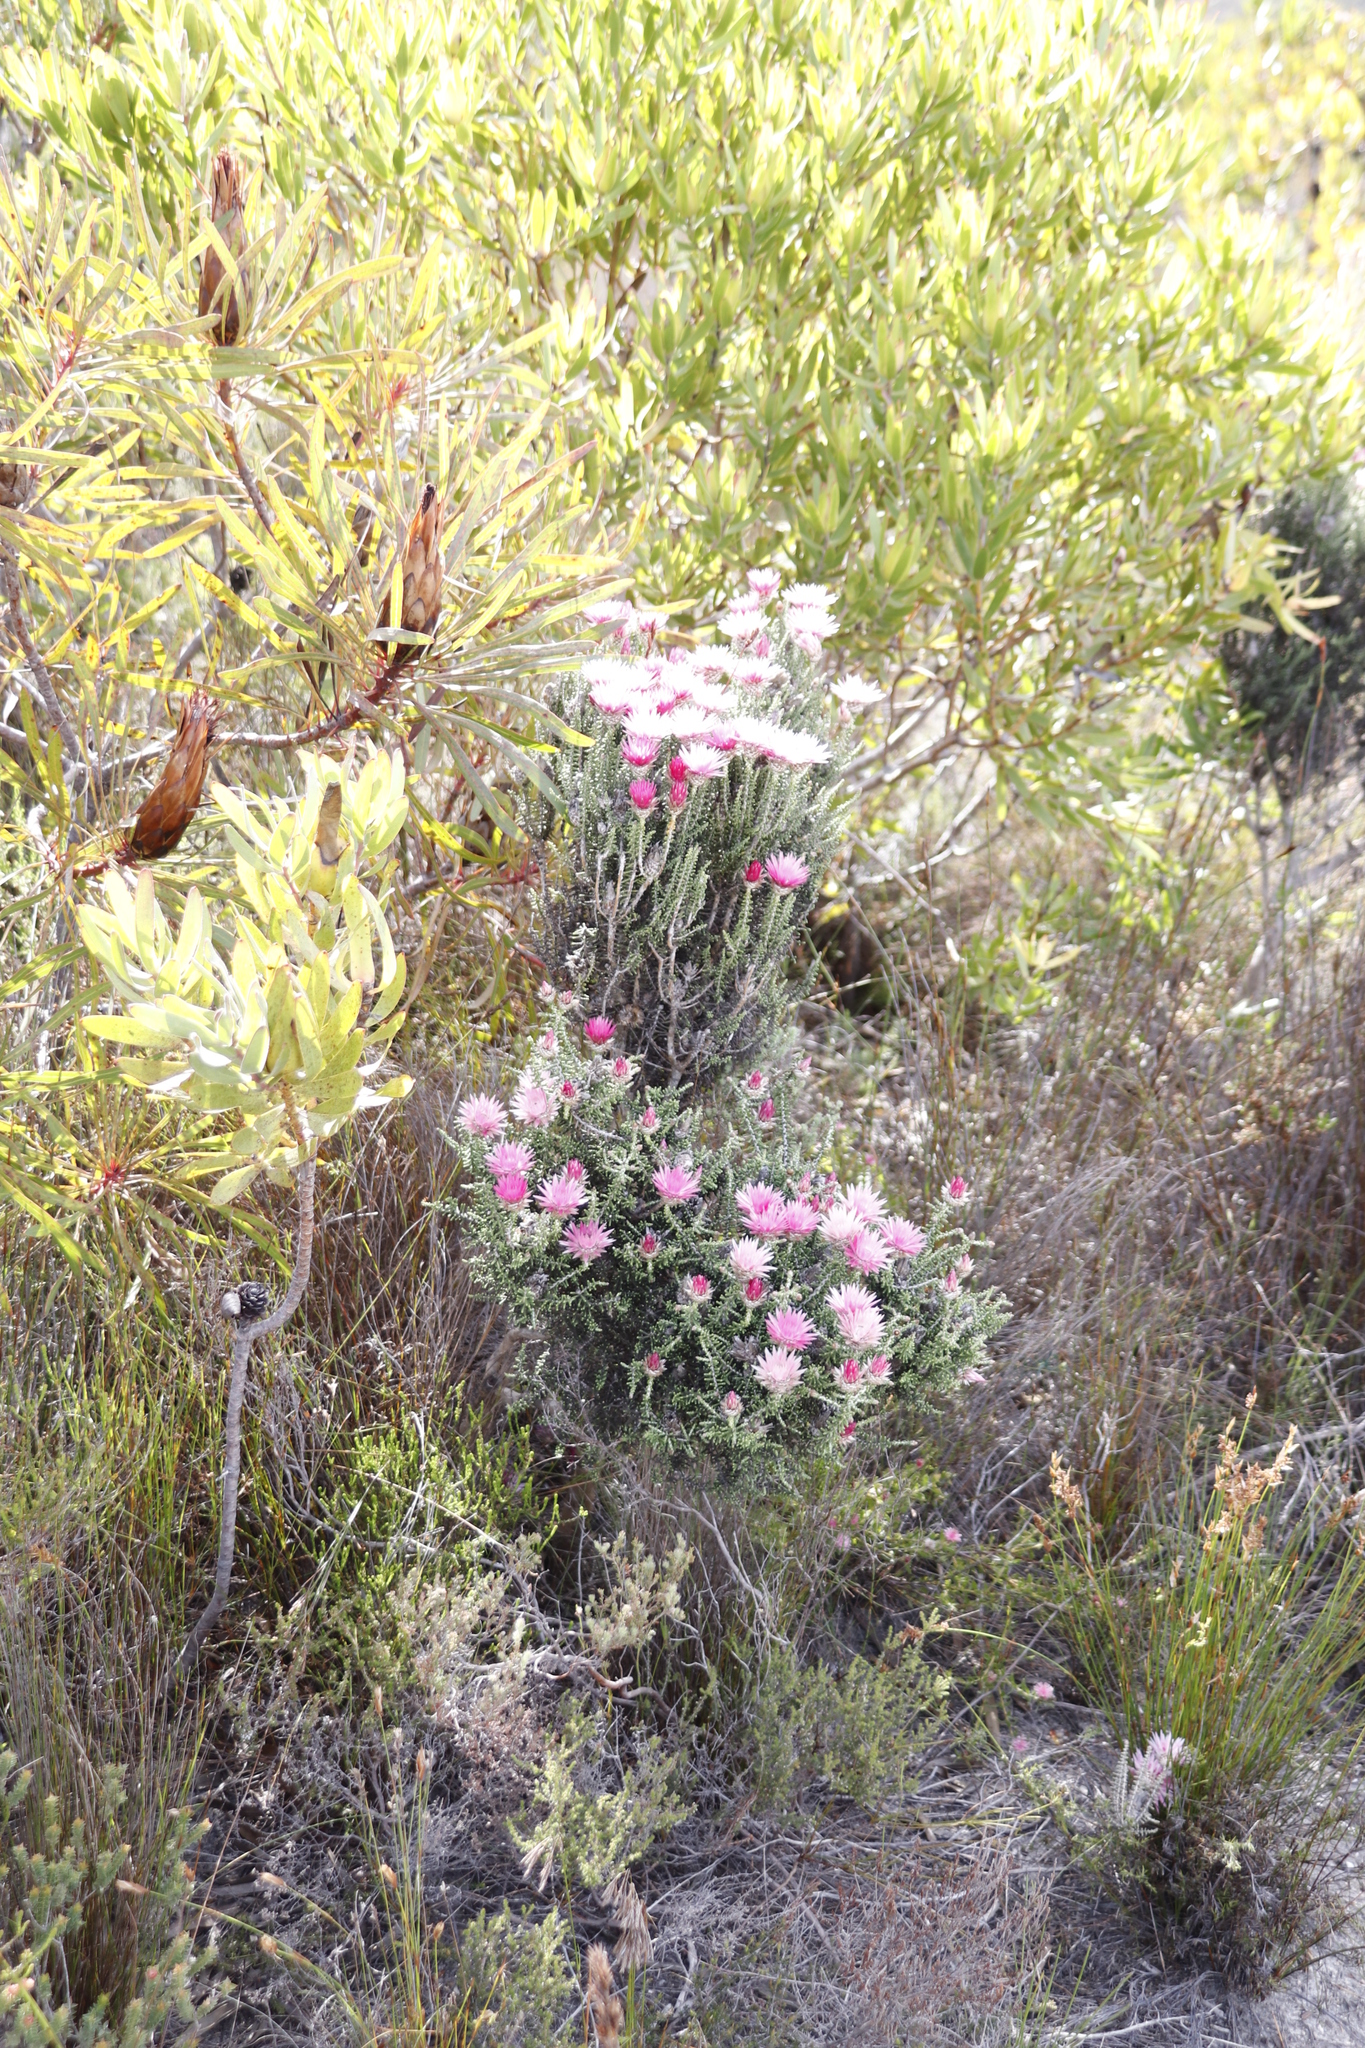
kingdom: Plantae
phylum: Tracheophyta
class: Magnoliopsida
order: Asterales
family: Asteraceae
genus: Phaenocoma
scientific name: Phaenocoma prolifera
